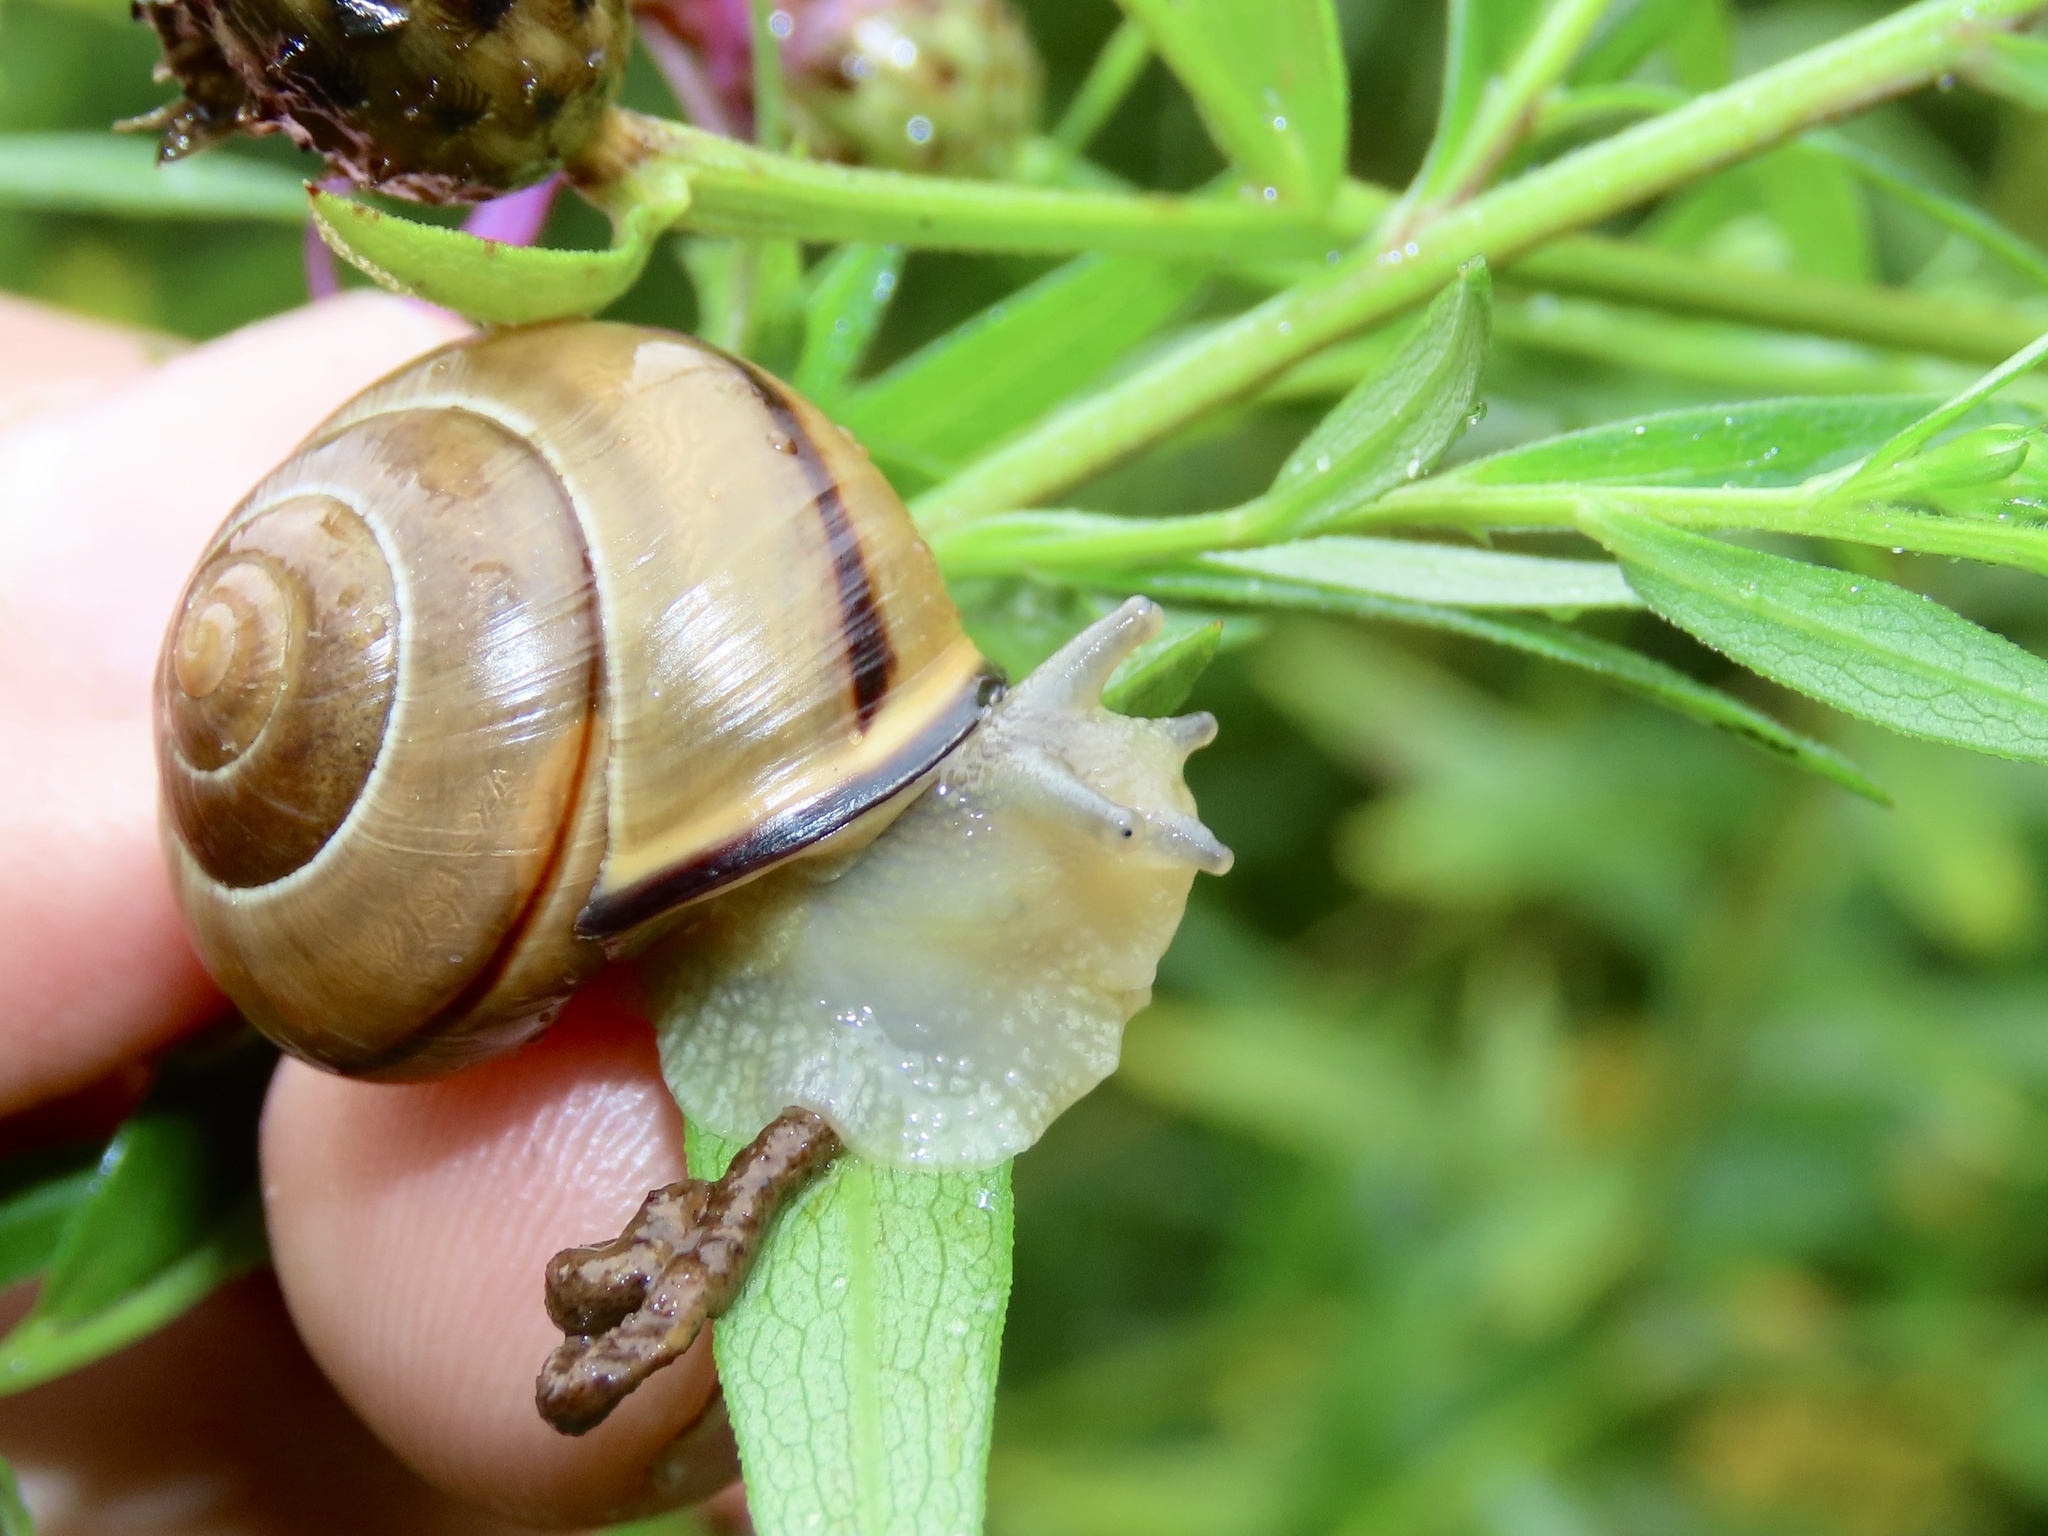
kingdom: Animalia
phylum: Mollusca
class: Gastropoda
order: Stylommatophora
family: Helicidae
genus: Cepaea
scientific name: Cepaea nemoralis
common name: Grovesnail
